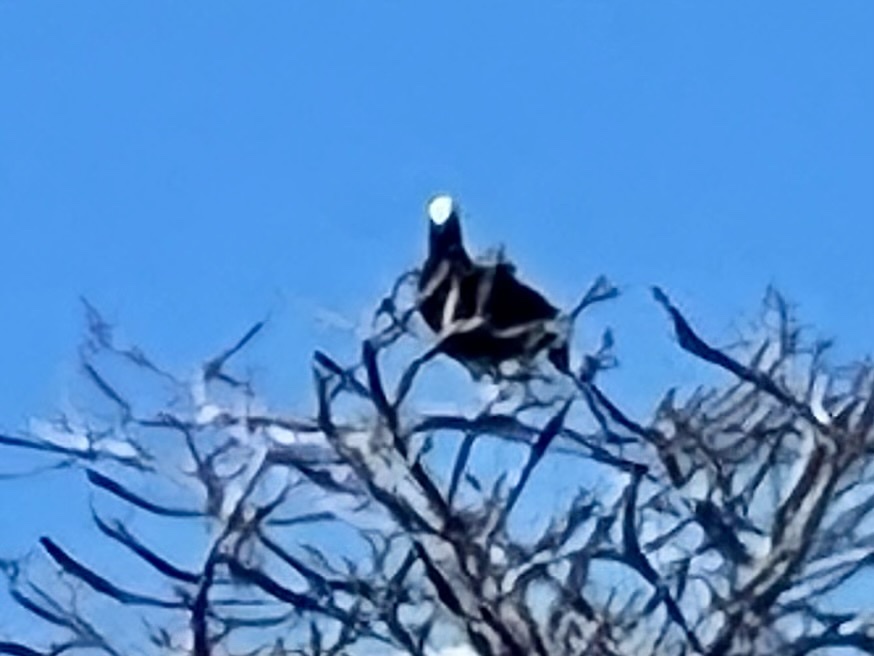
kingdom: Animalia
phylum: Chordata
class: Aves
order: Columbiformes
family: Columbidae
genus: Patagioenas
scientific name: Patagioenas leucocephala
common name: White-crowned pigeon
